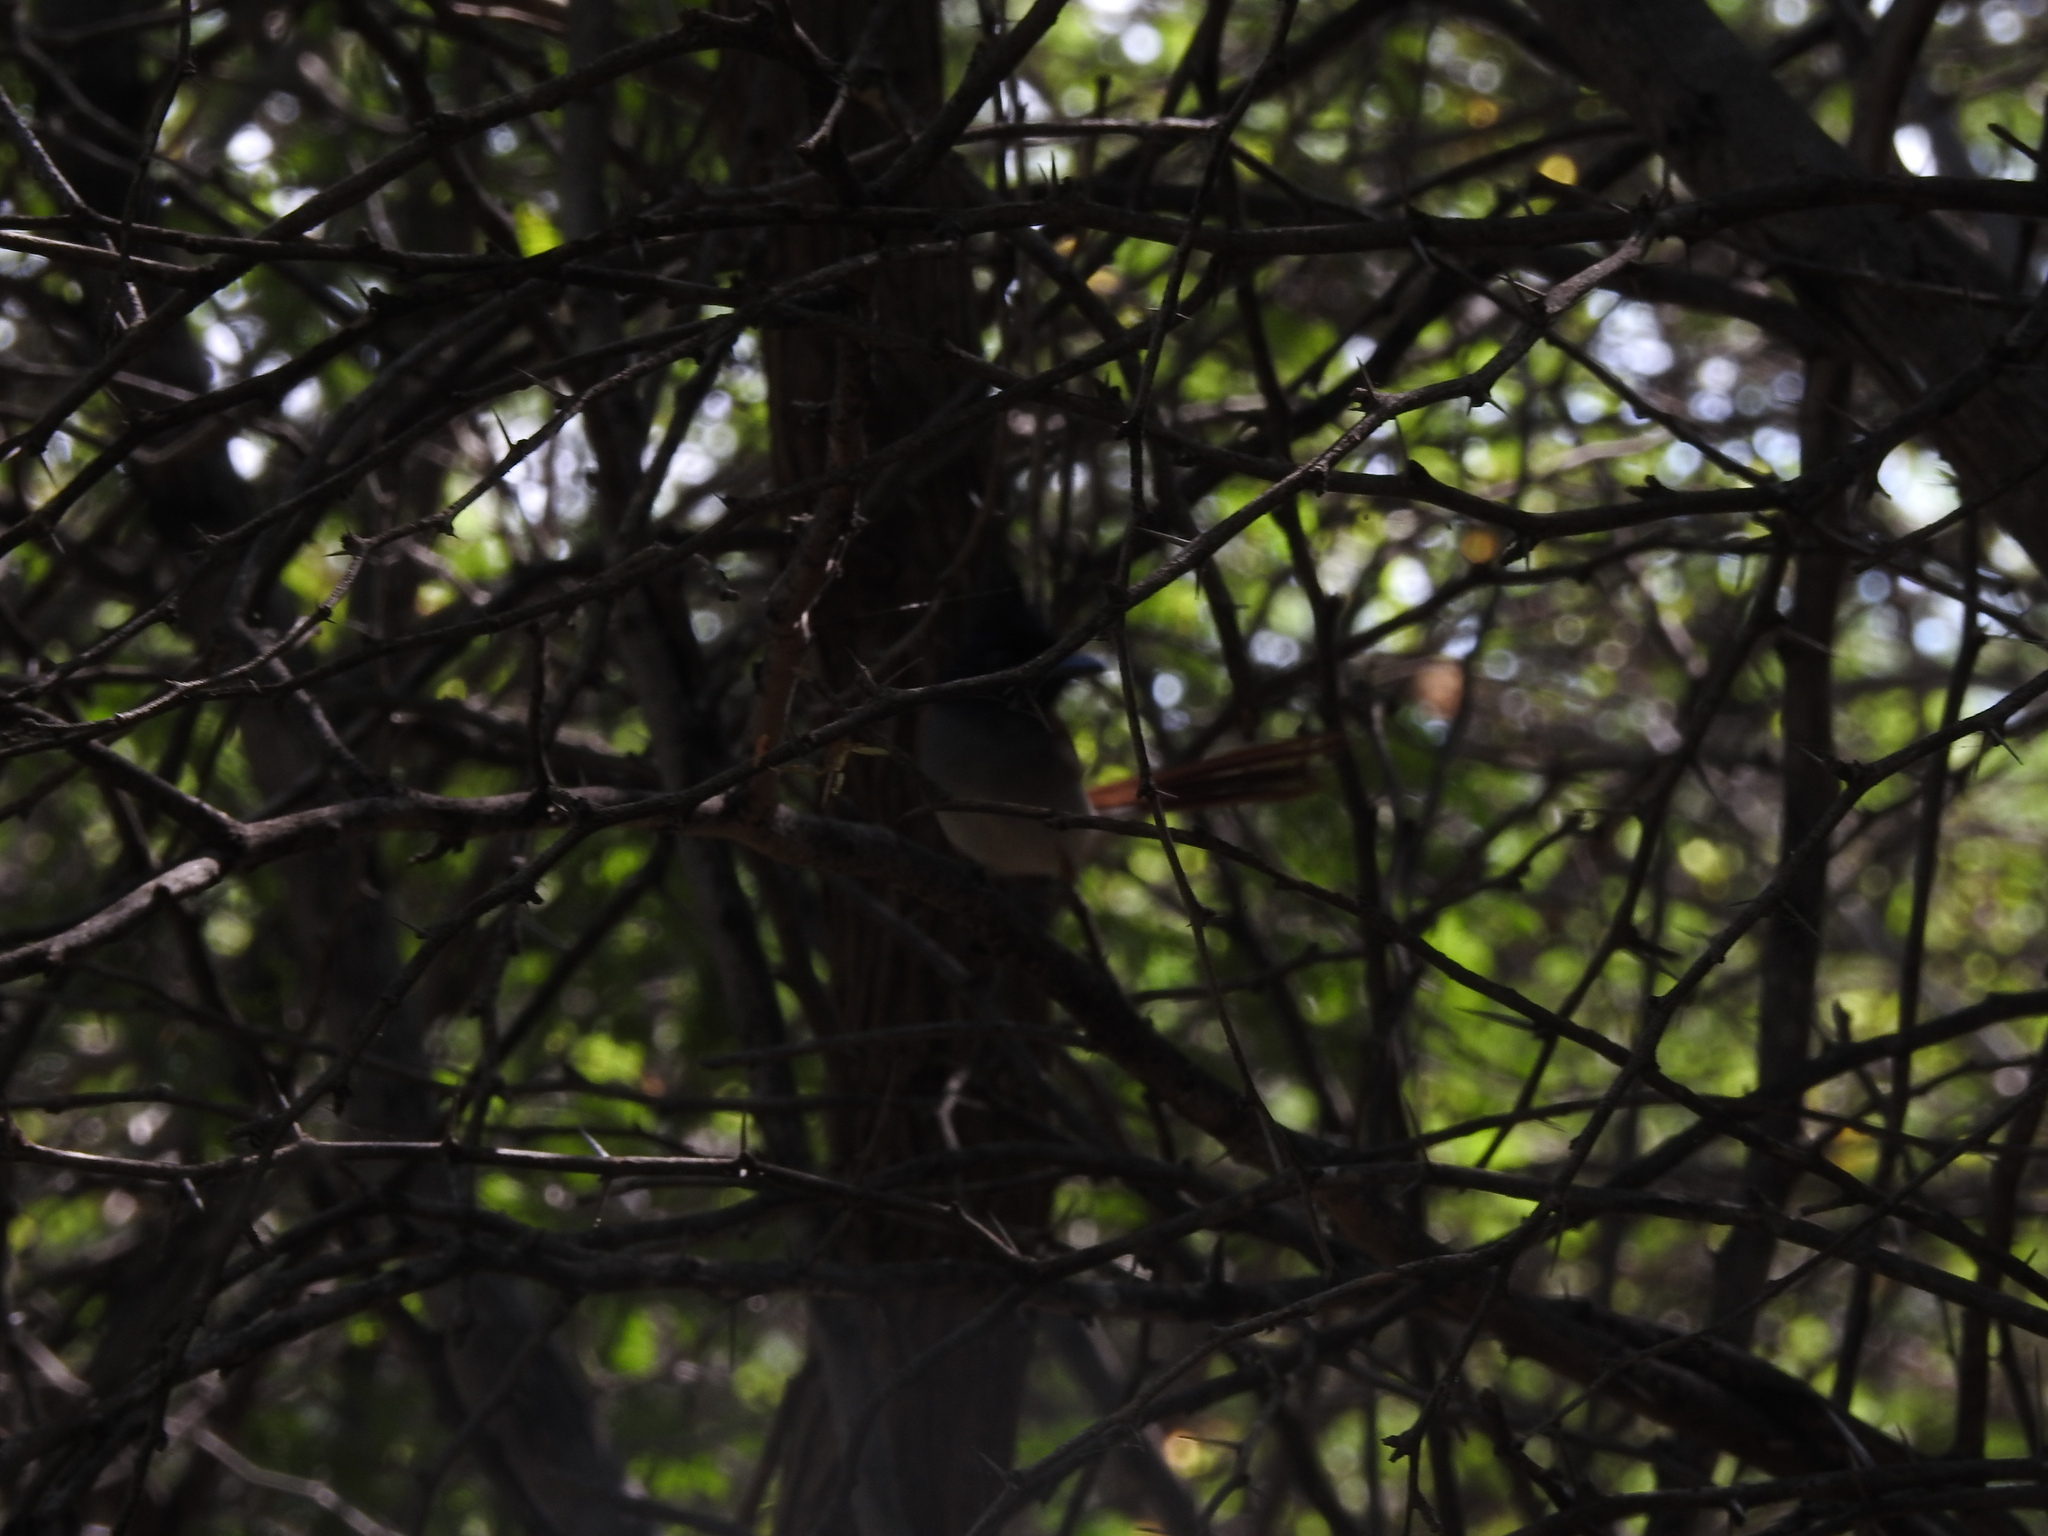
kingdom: Animalia
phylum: Chordata
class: Aves
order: Passeriformes
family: Monarchidae
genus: Terpsiphone
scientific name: Terpsiphone paradisi
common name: Indian paradise flycatcher
